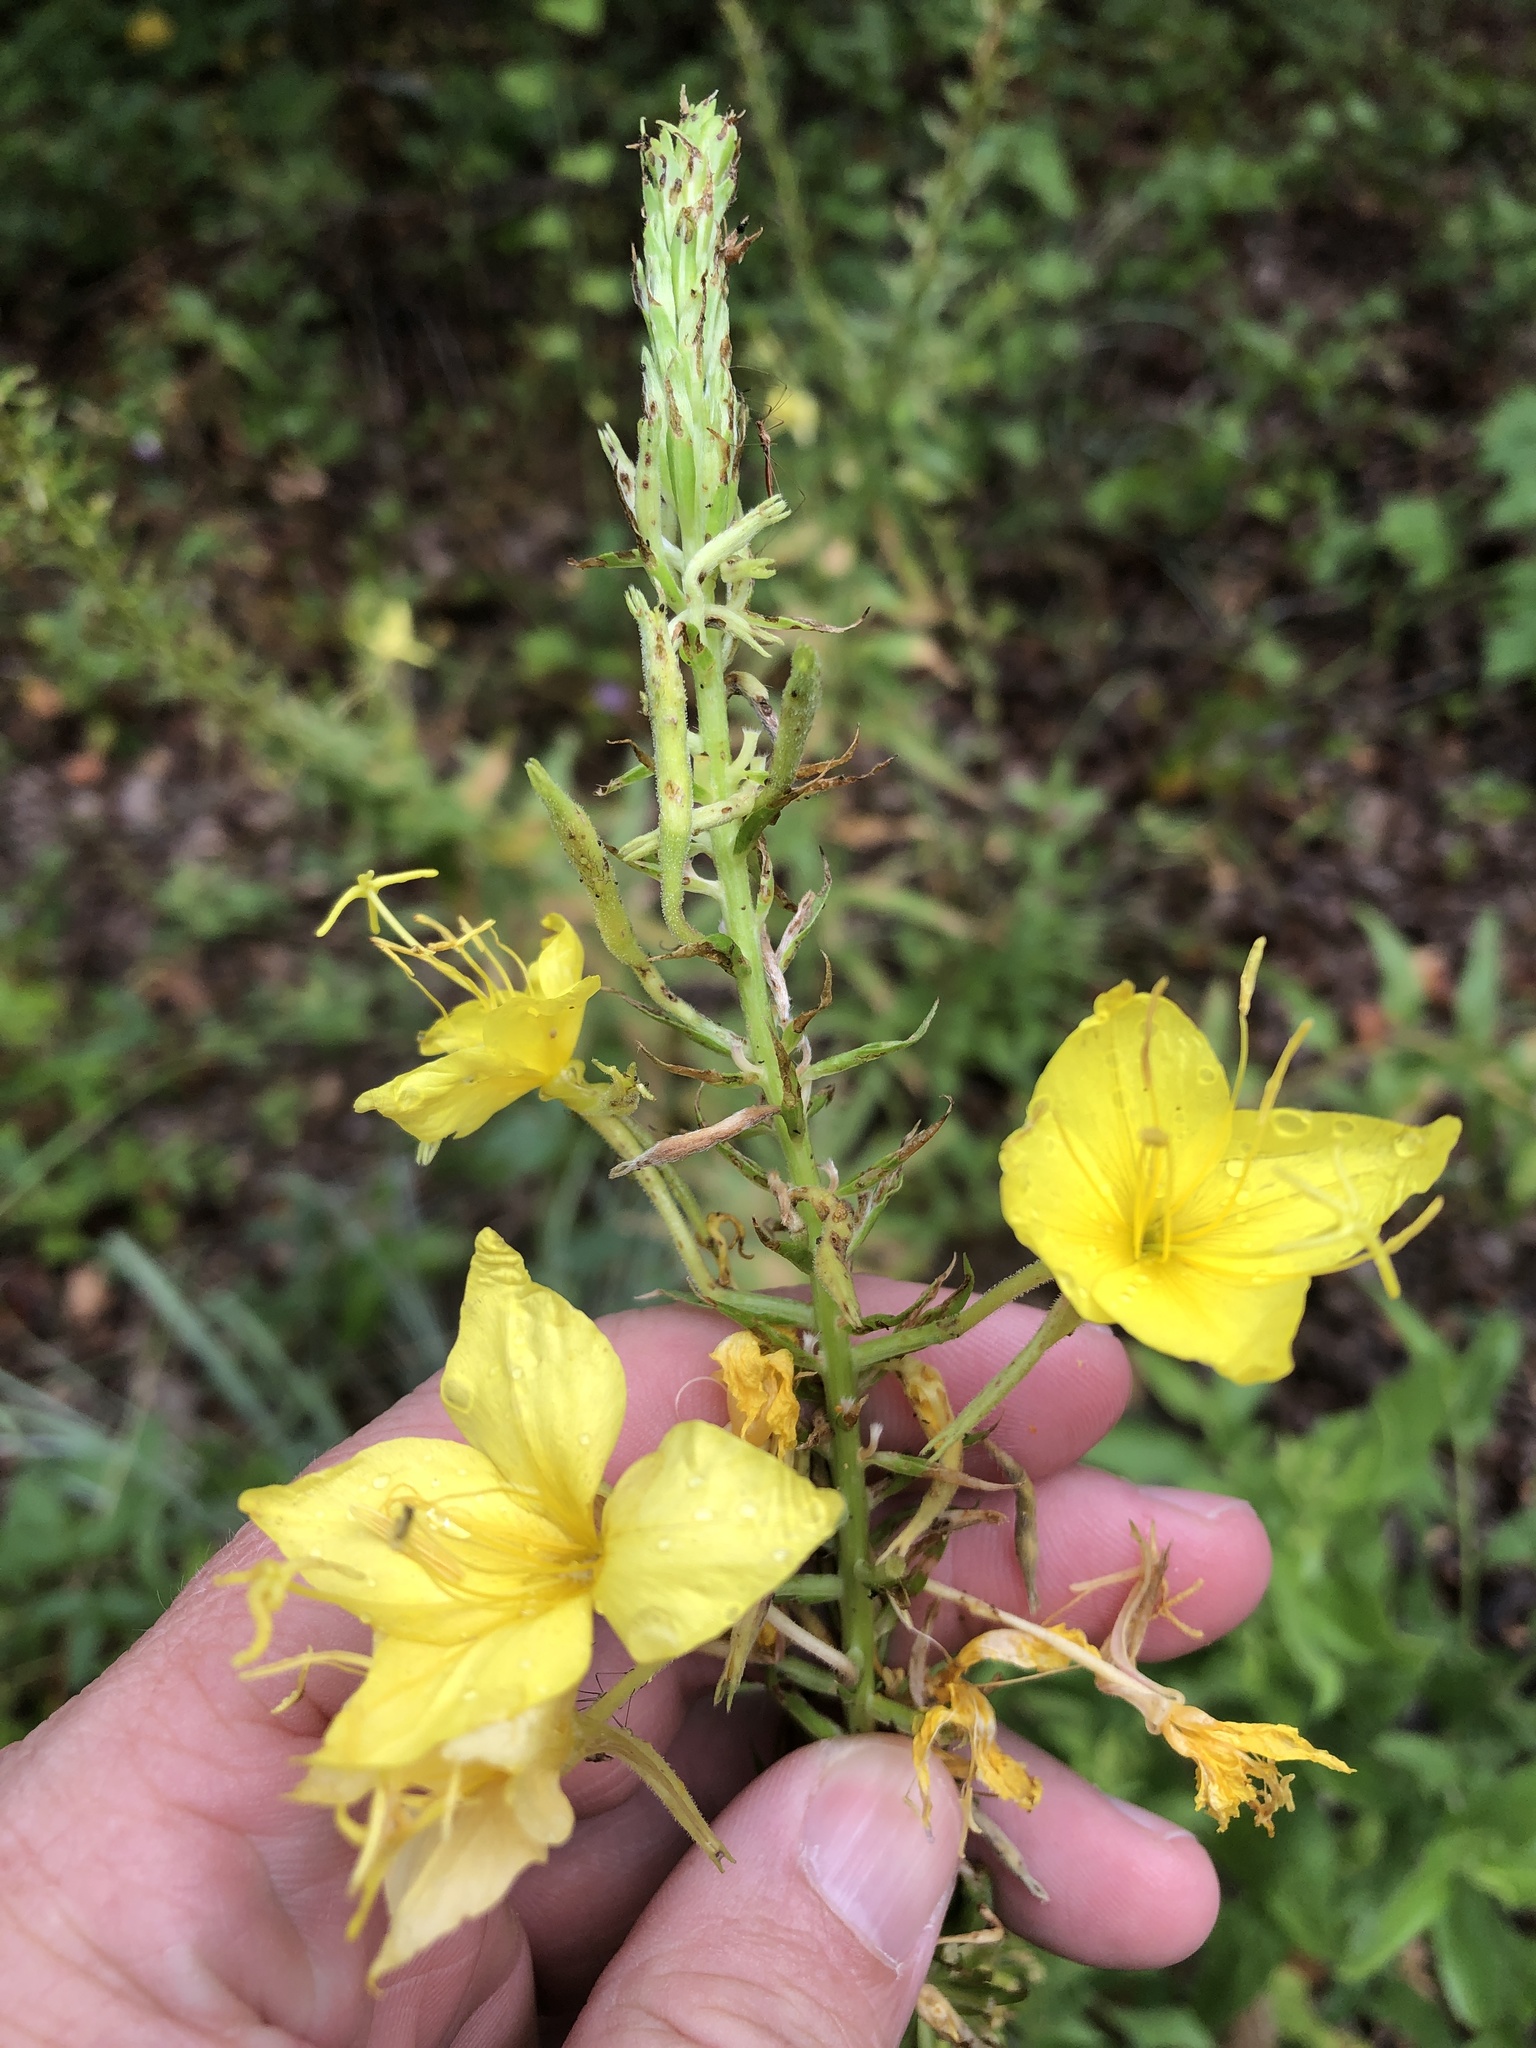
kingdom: Plantae
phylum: Tracheophyta
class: Magnoliopsida
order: Myrtales
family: Onagraceae
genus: Oenothera
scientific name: Oenothera rhombipetala
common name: Four-points evening-primrose
